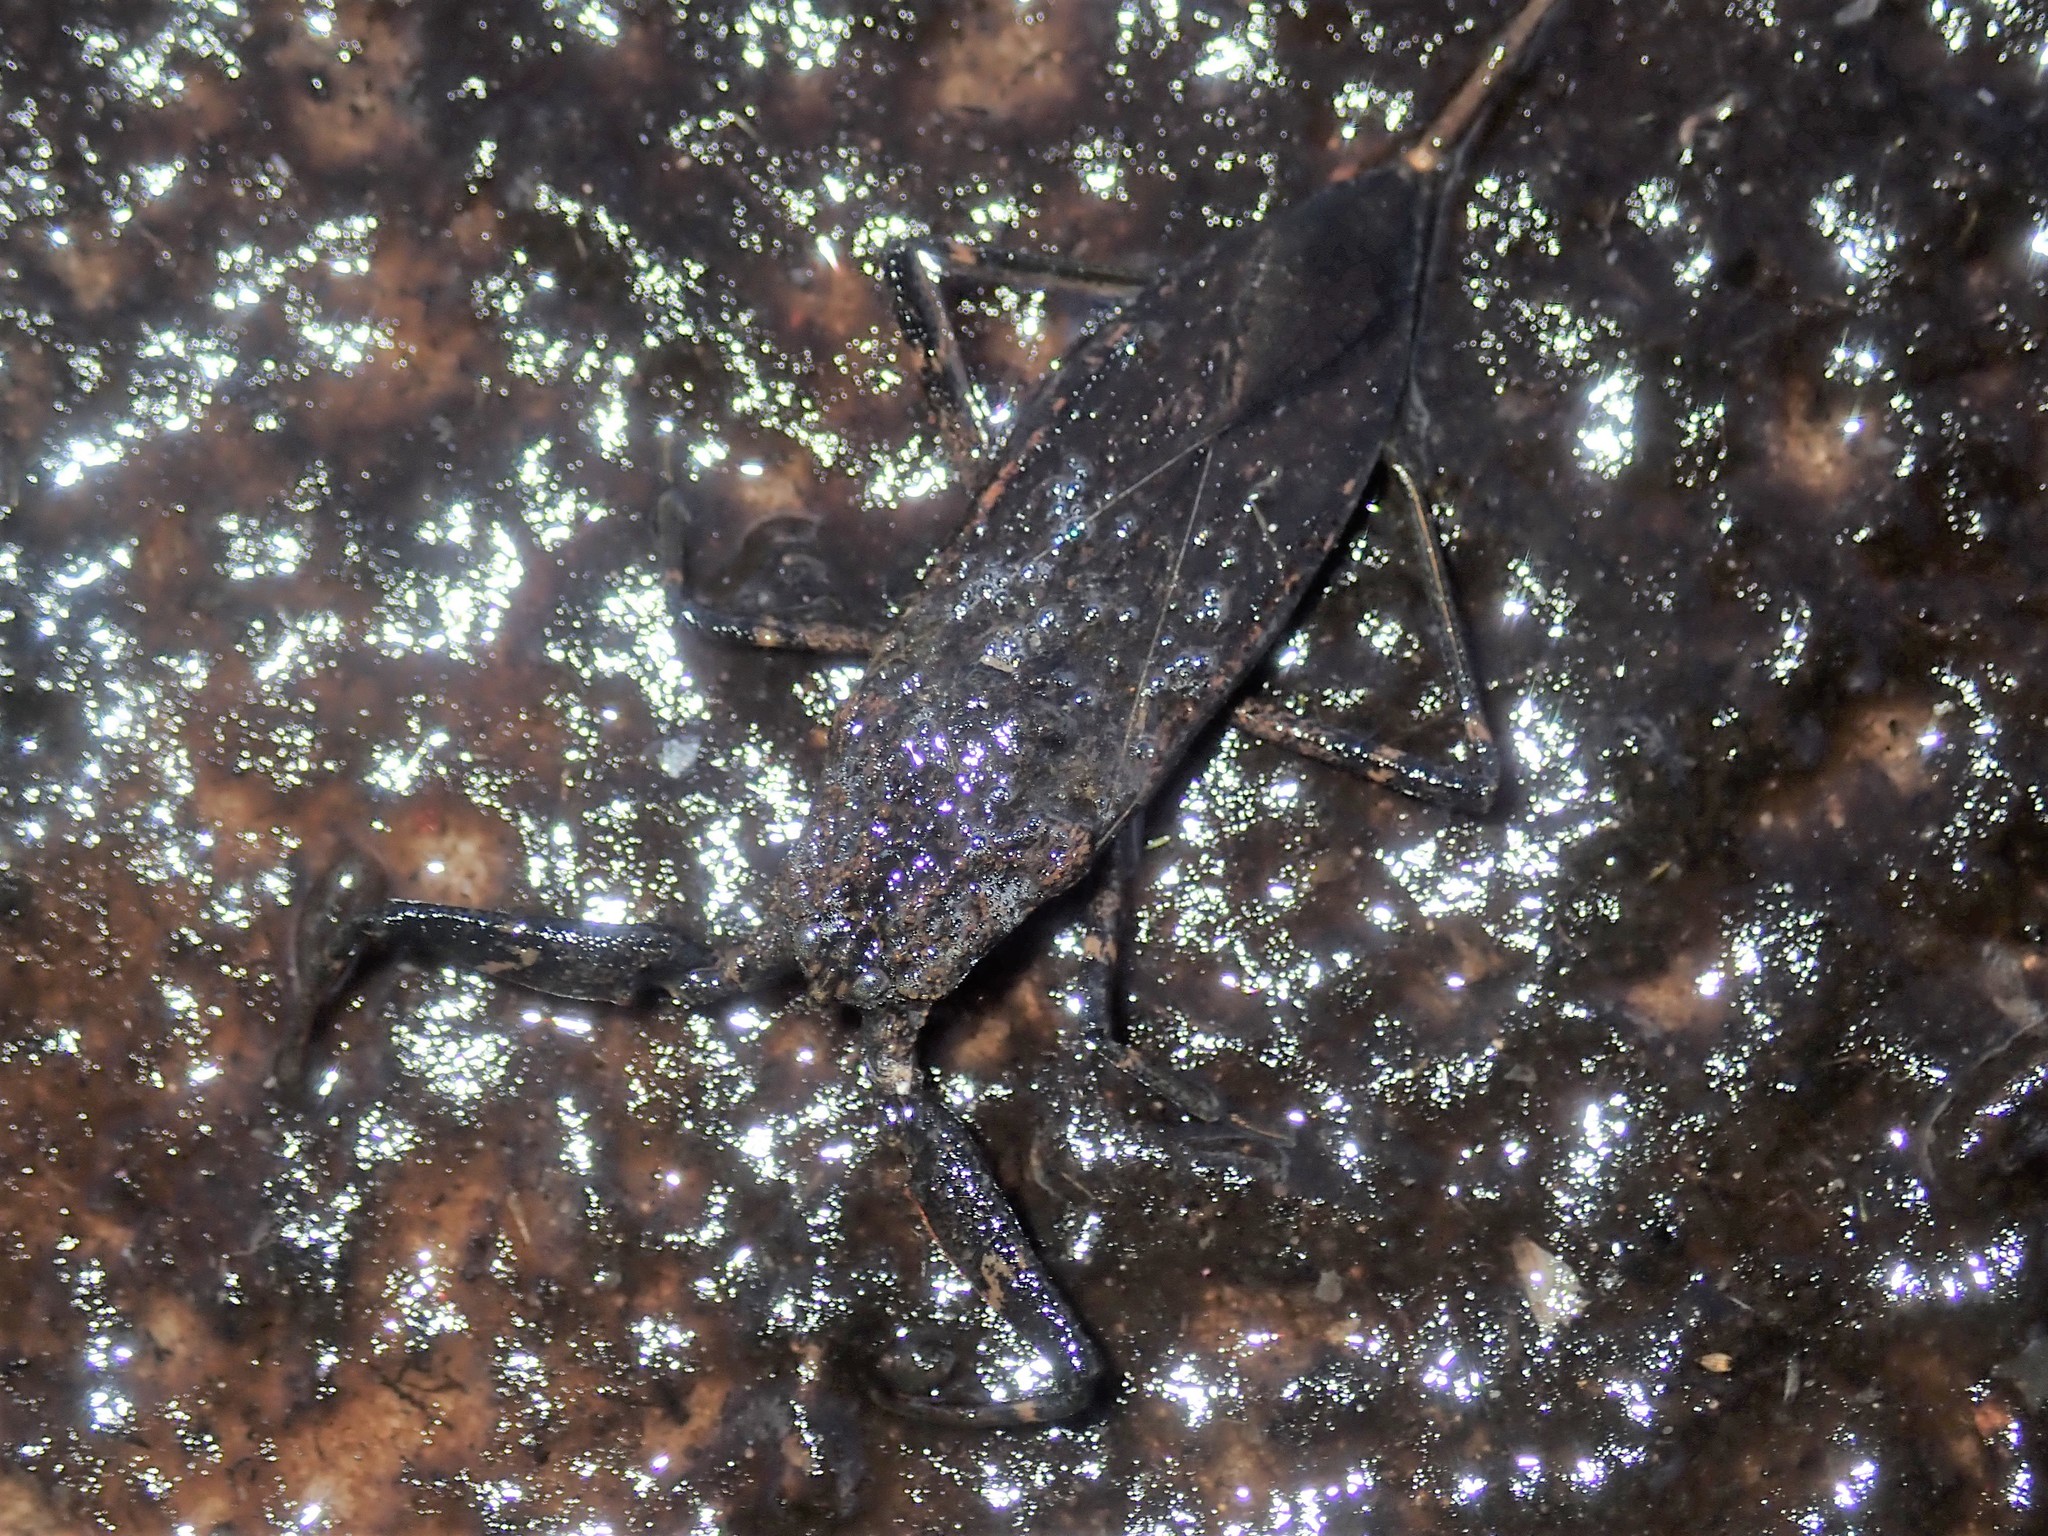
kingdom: Animalia
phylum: Arthropoda
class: Insecta
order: Hemiptera
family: Nepidae
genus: Laccotrephes
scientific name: Laccotrephes tristis
